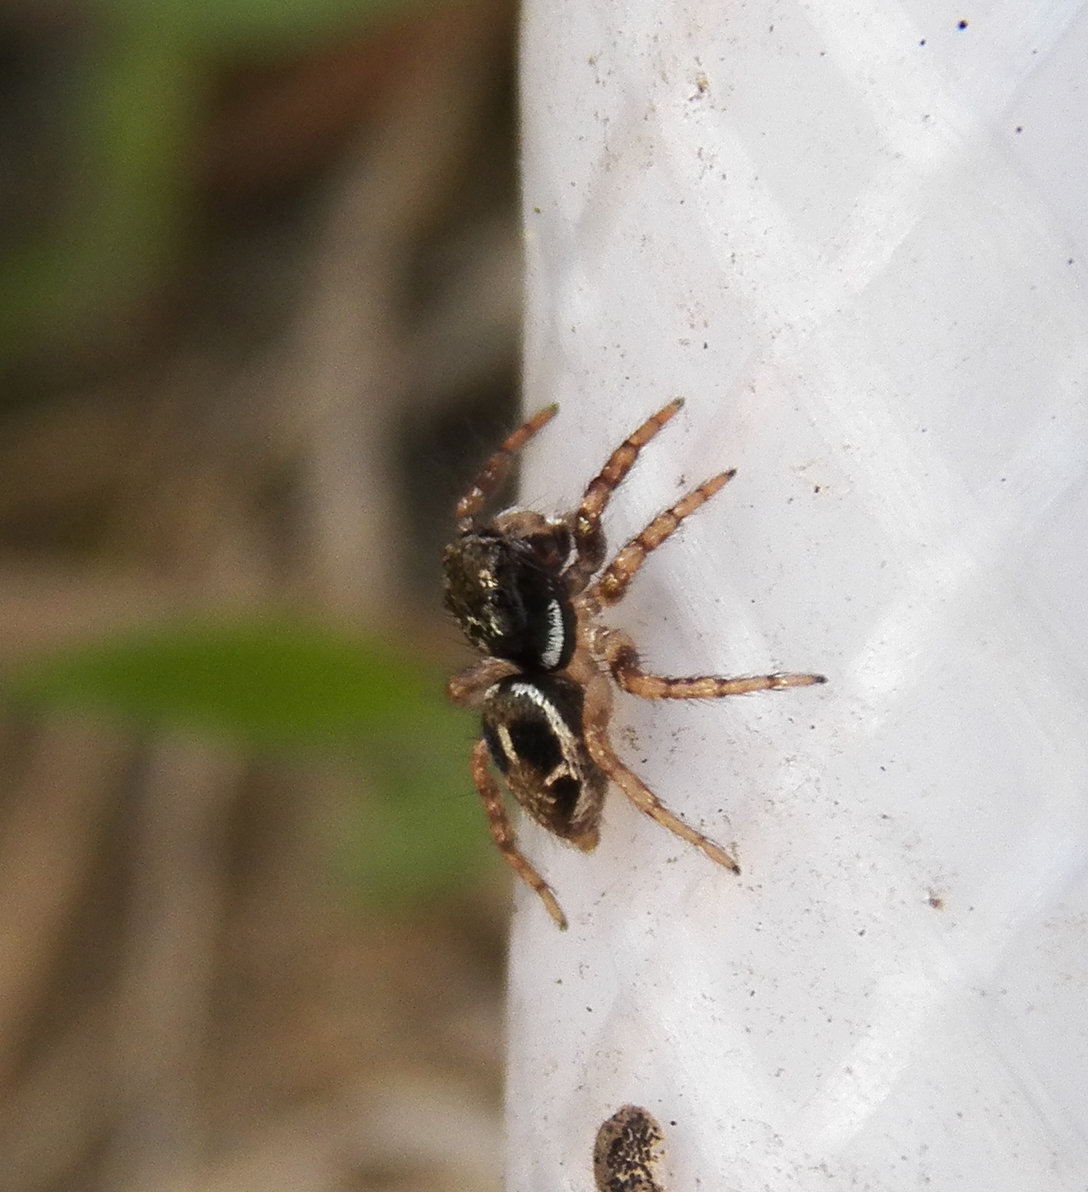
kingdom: Animalia
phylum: Arthropoda
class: Arachnida
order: Araneae
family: Salticidae
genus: Anasaitis
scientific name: Anasaitis canosa
